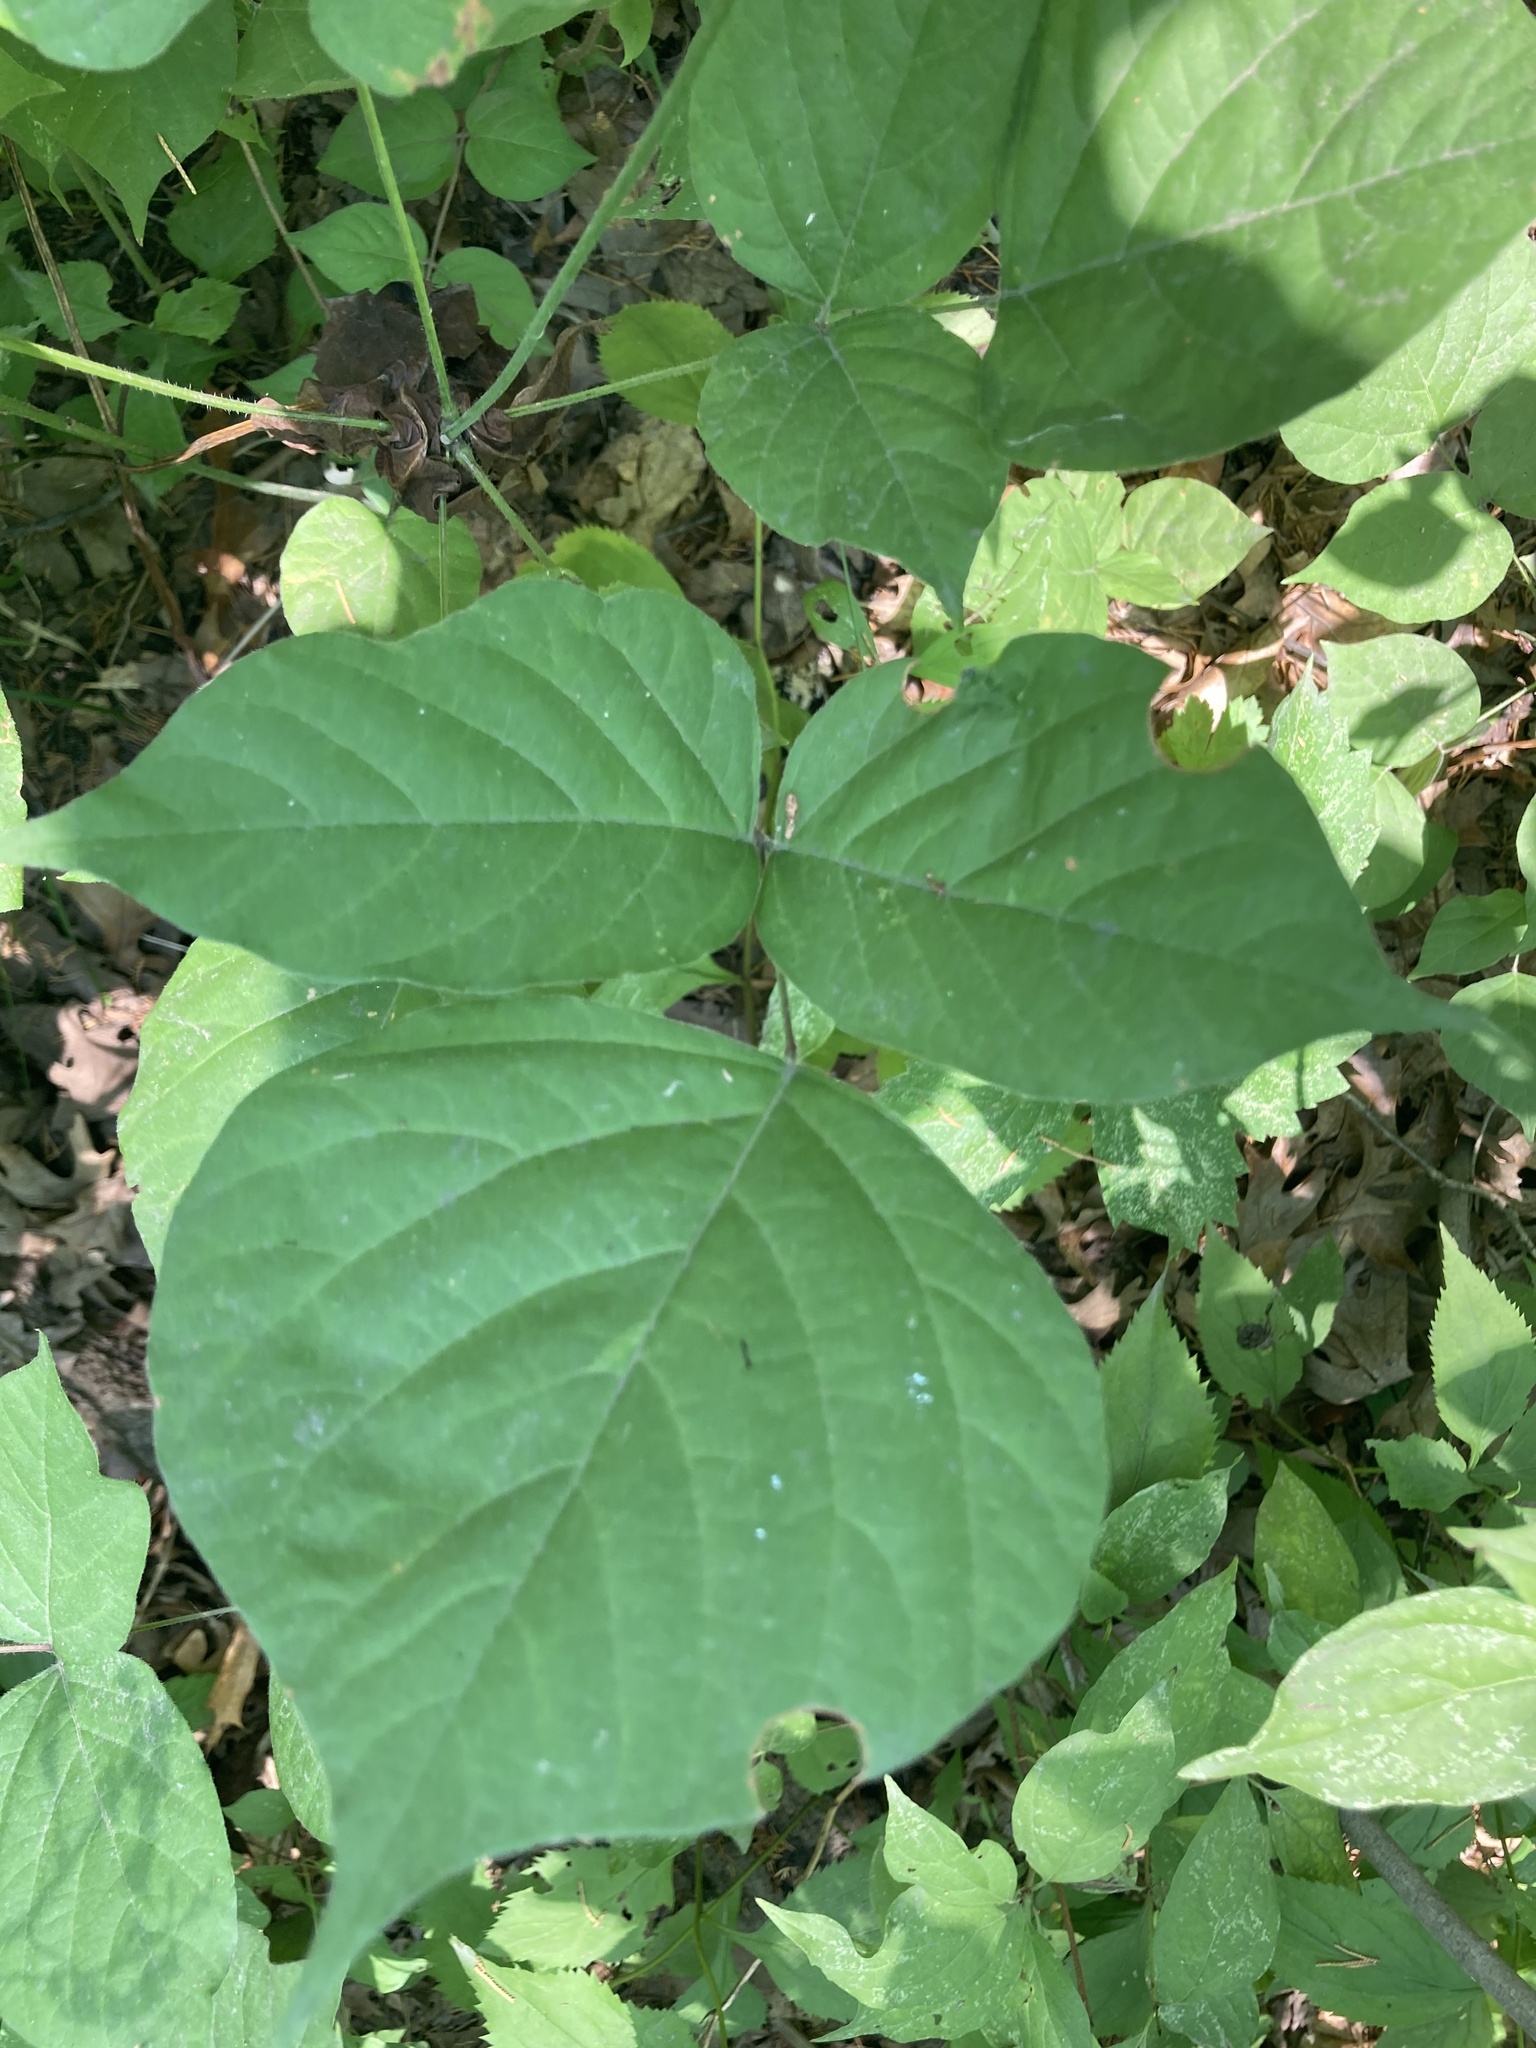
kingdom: Plantae
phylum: Tracheophyta
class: Magnoliopsida
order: Fabales
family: Fabaceae
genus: Hylodesmum
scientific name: Hylodesmum glutinosum
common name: Clustered-leaved tick-trefoil
